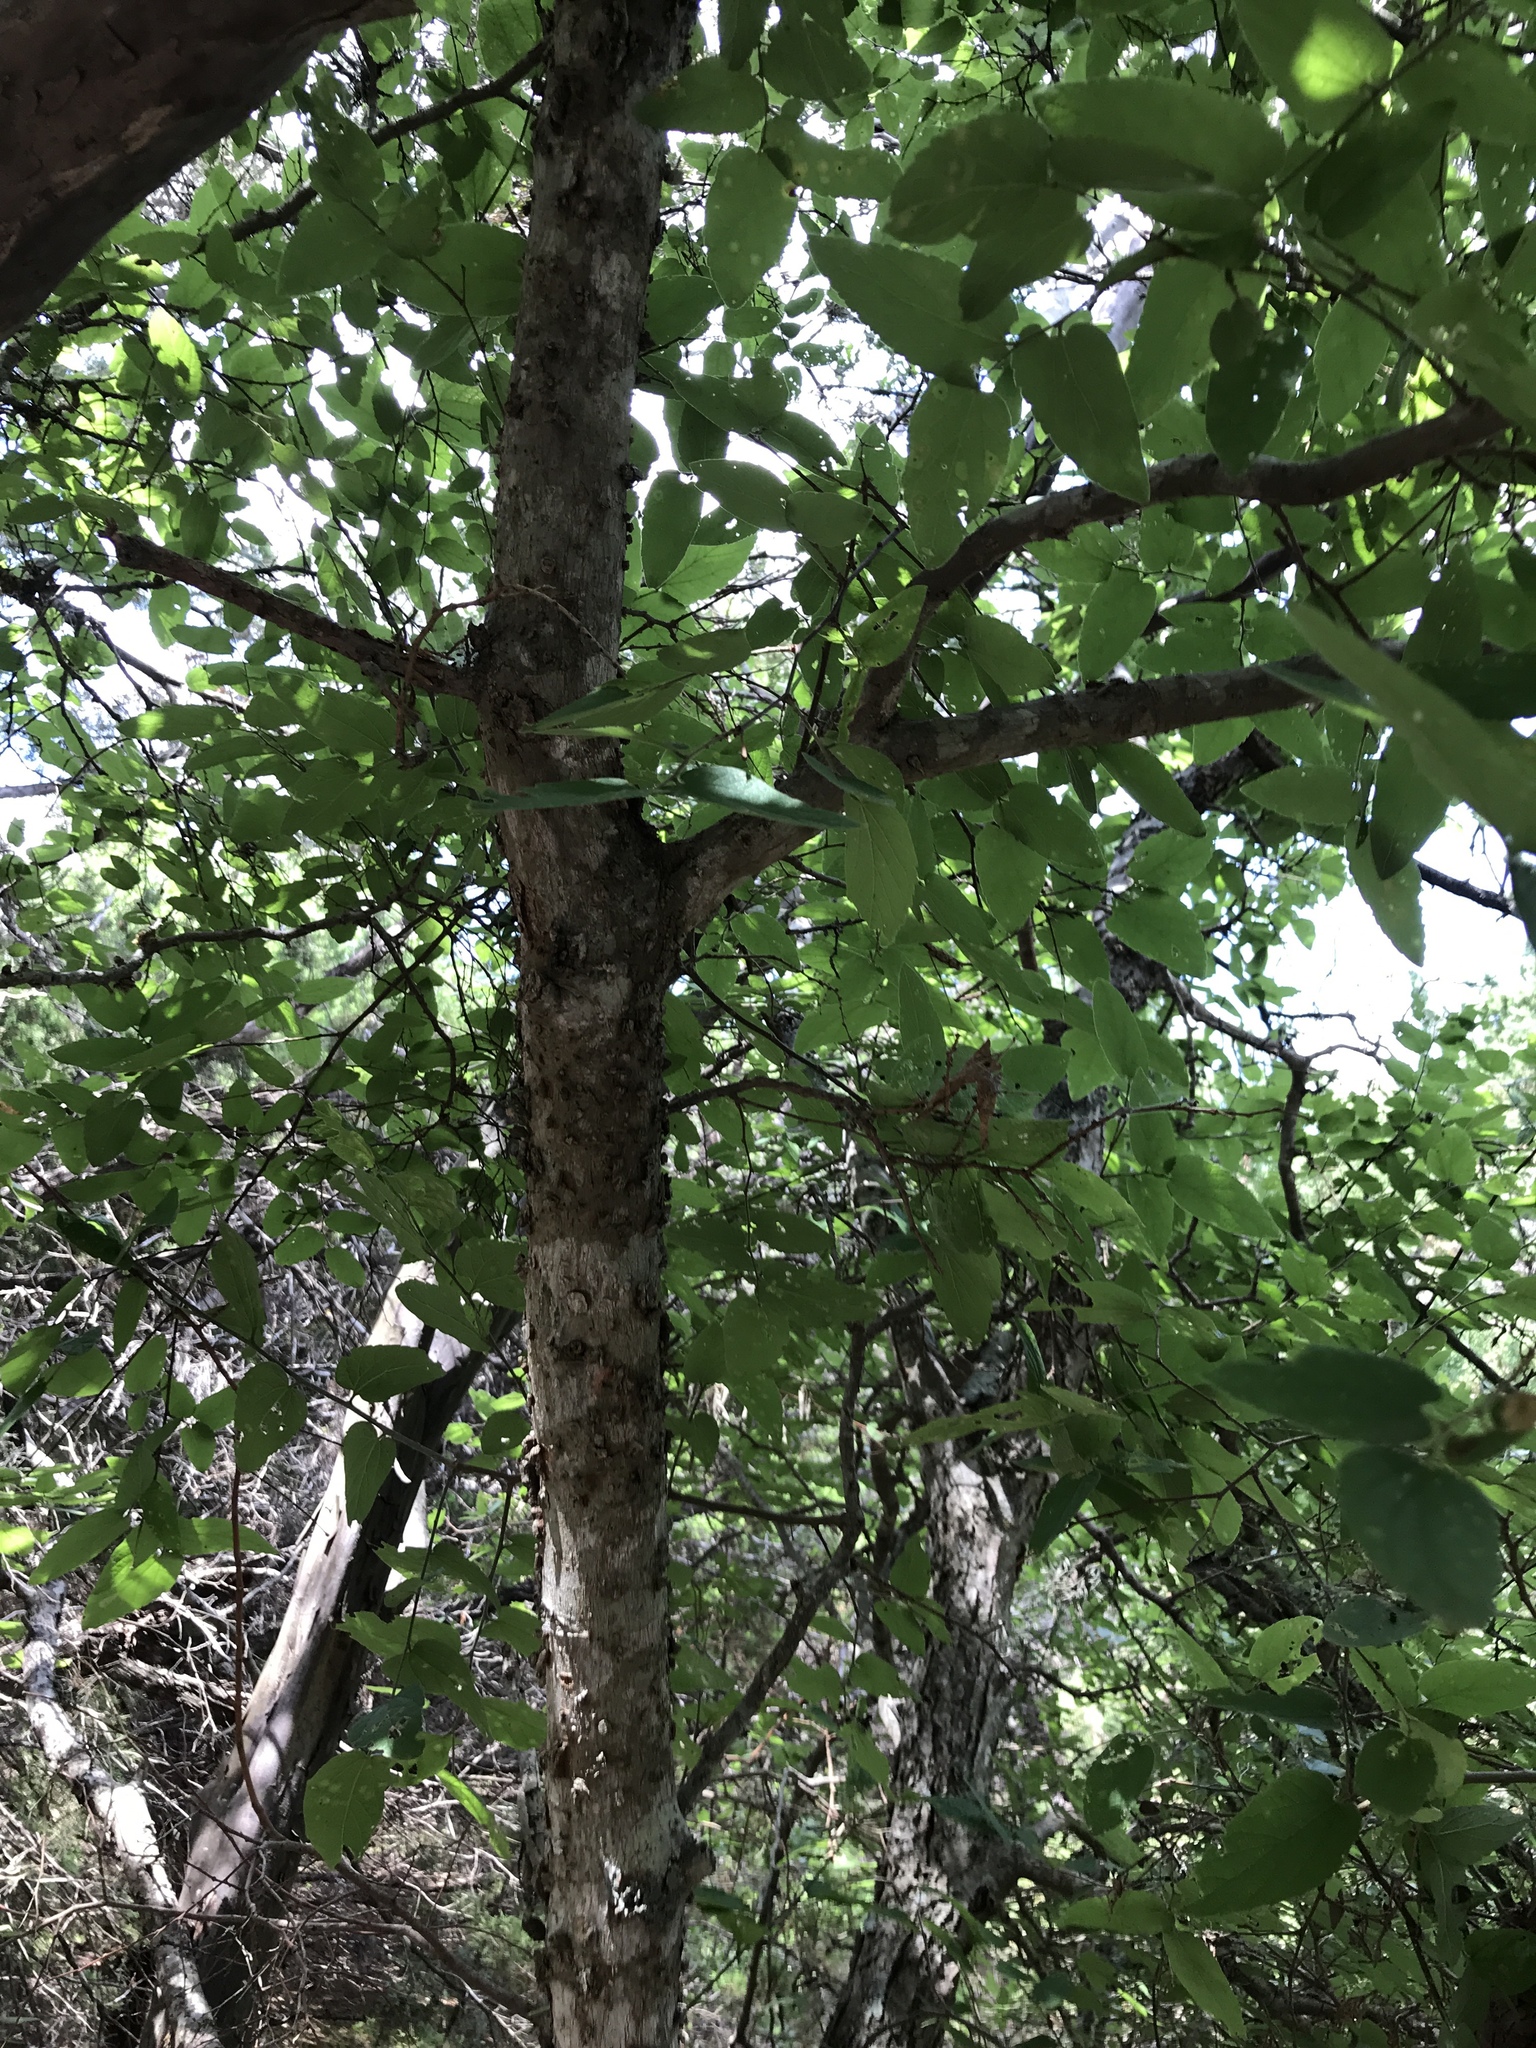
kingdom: Plantae
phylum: Tracheophyta
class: Magnoliopsida
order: Rosales
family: Cannabaceae
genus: Celtis
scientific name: Celtis reticulata
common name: Netleaf hackberry
